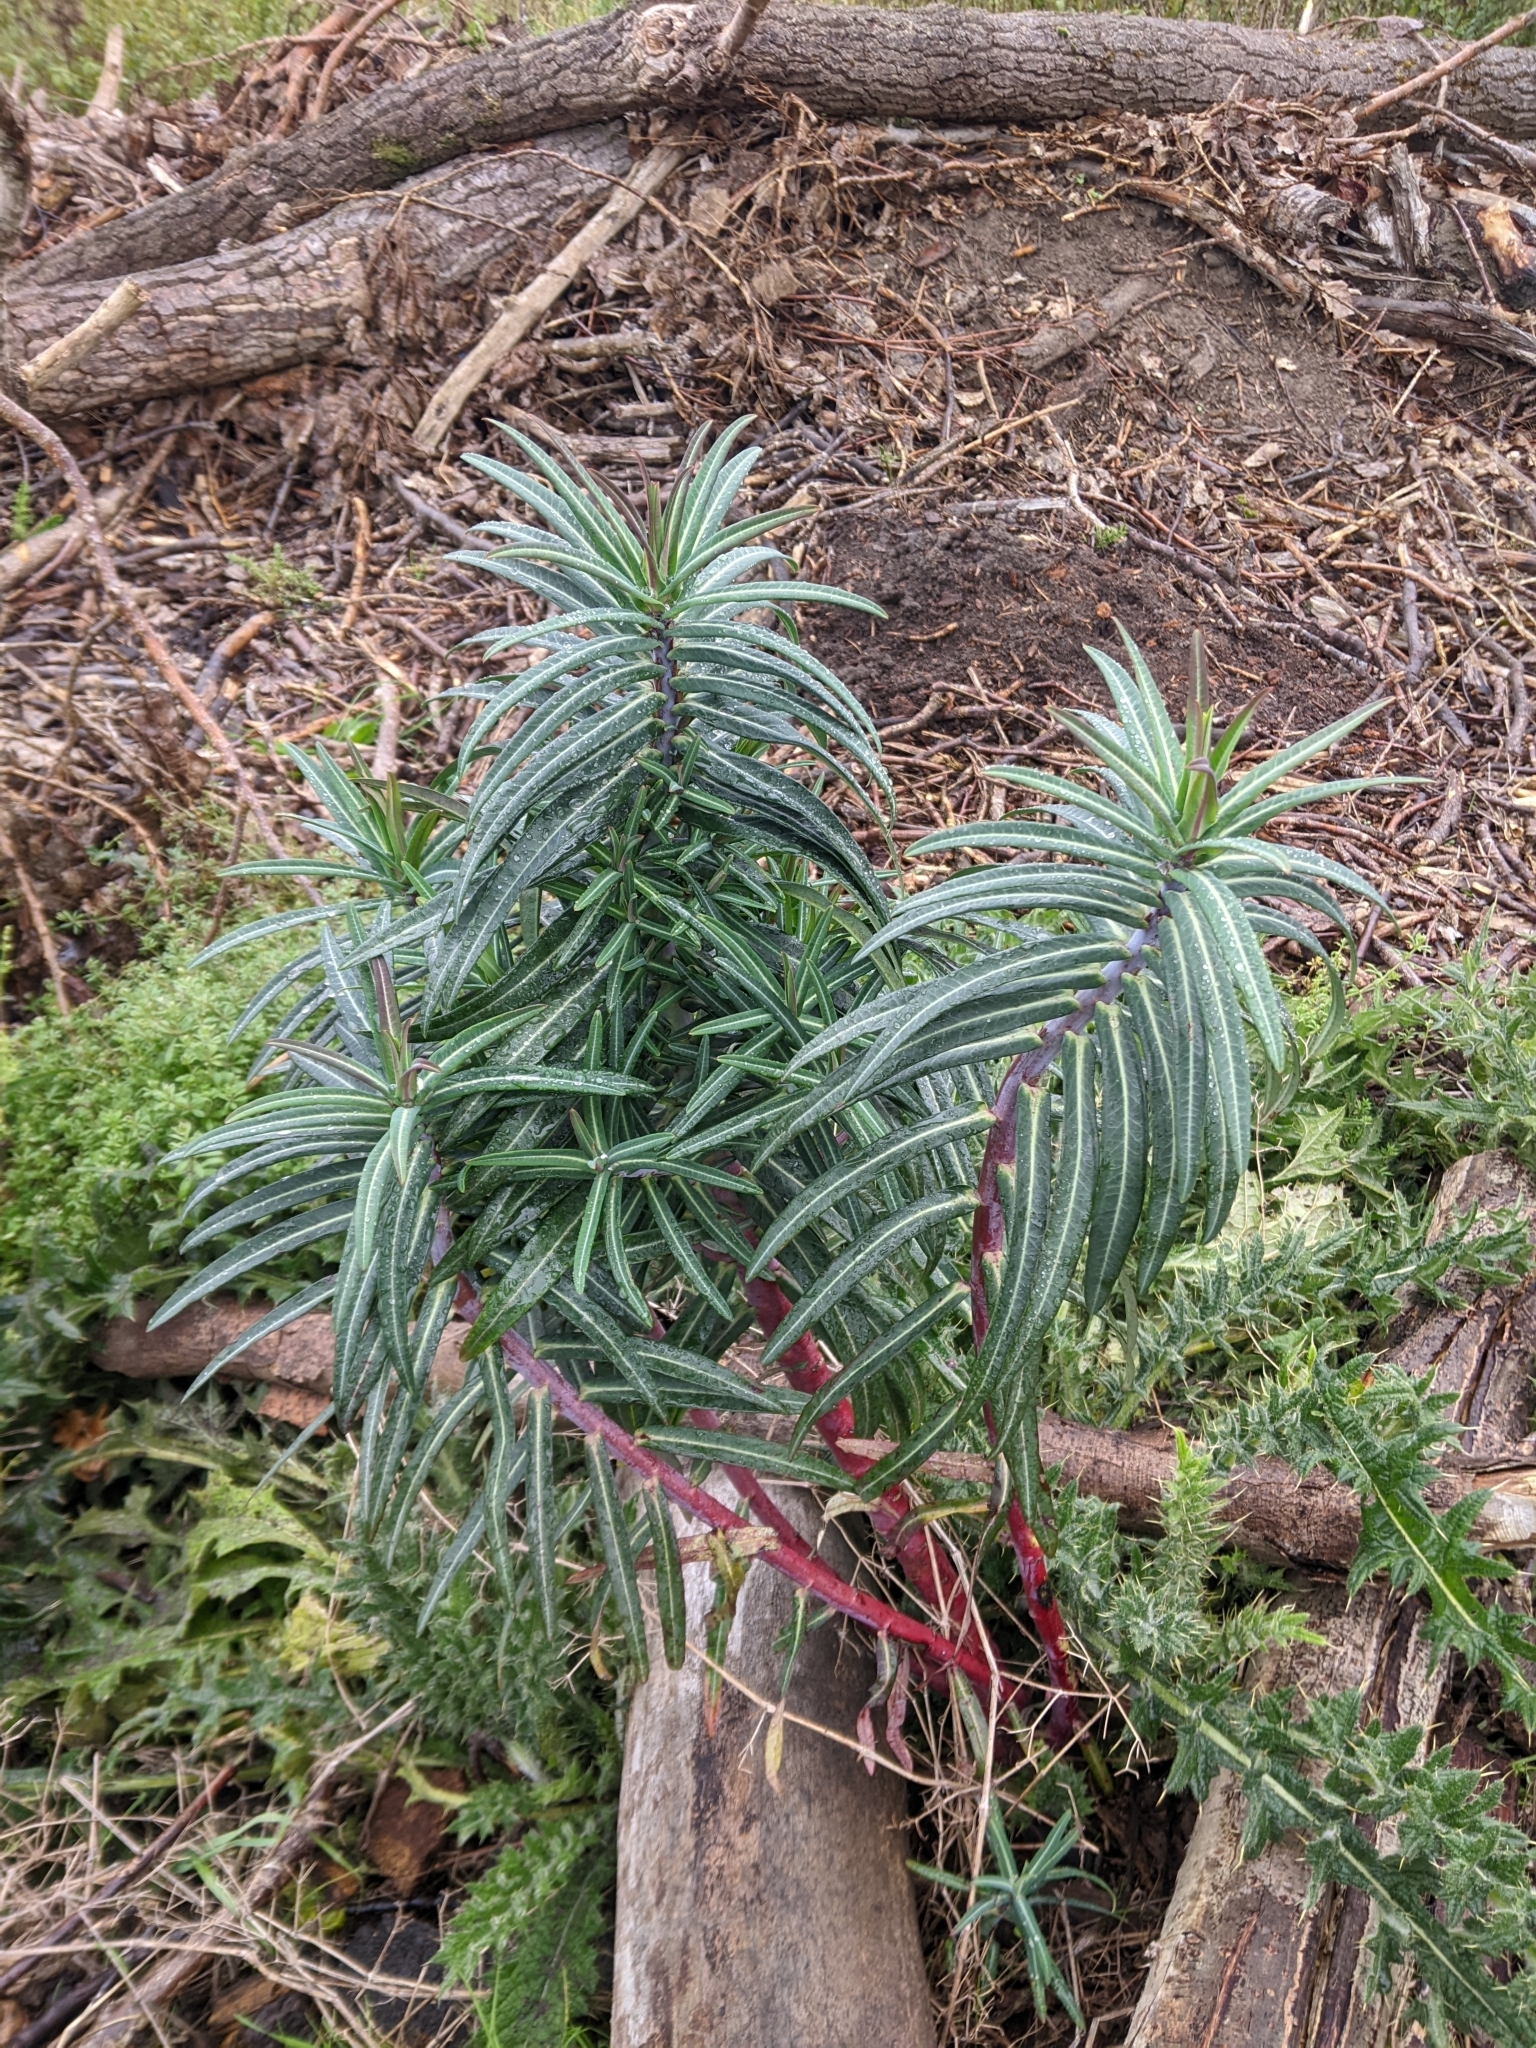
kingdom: Plantae
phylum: Tracheophyta
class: Magnoliopsida
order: Malpighiales
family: Euphorbiaceae
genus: Euphorbia
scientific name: Euphorbia lathyris
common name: Caper spurge
